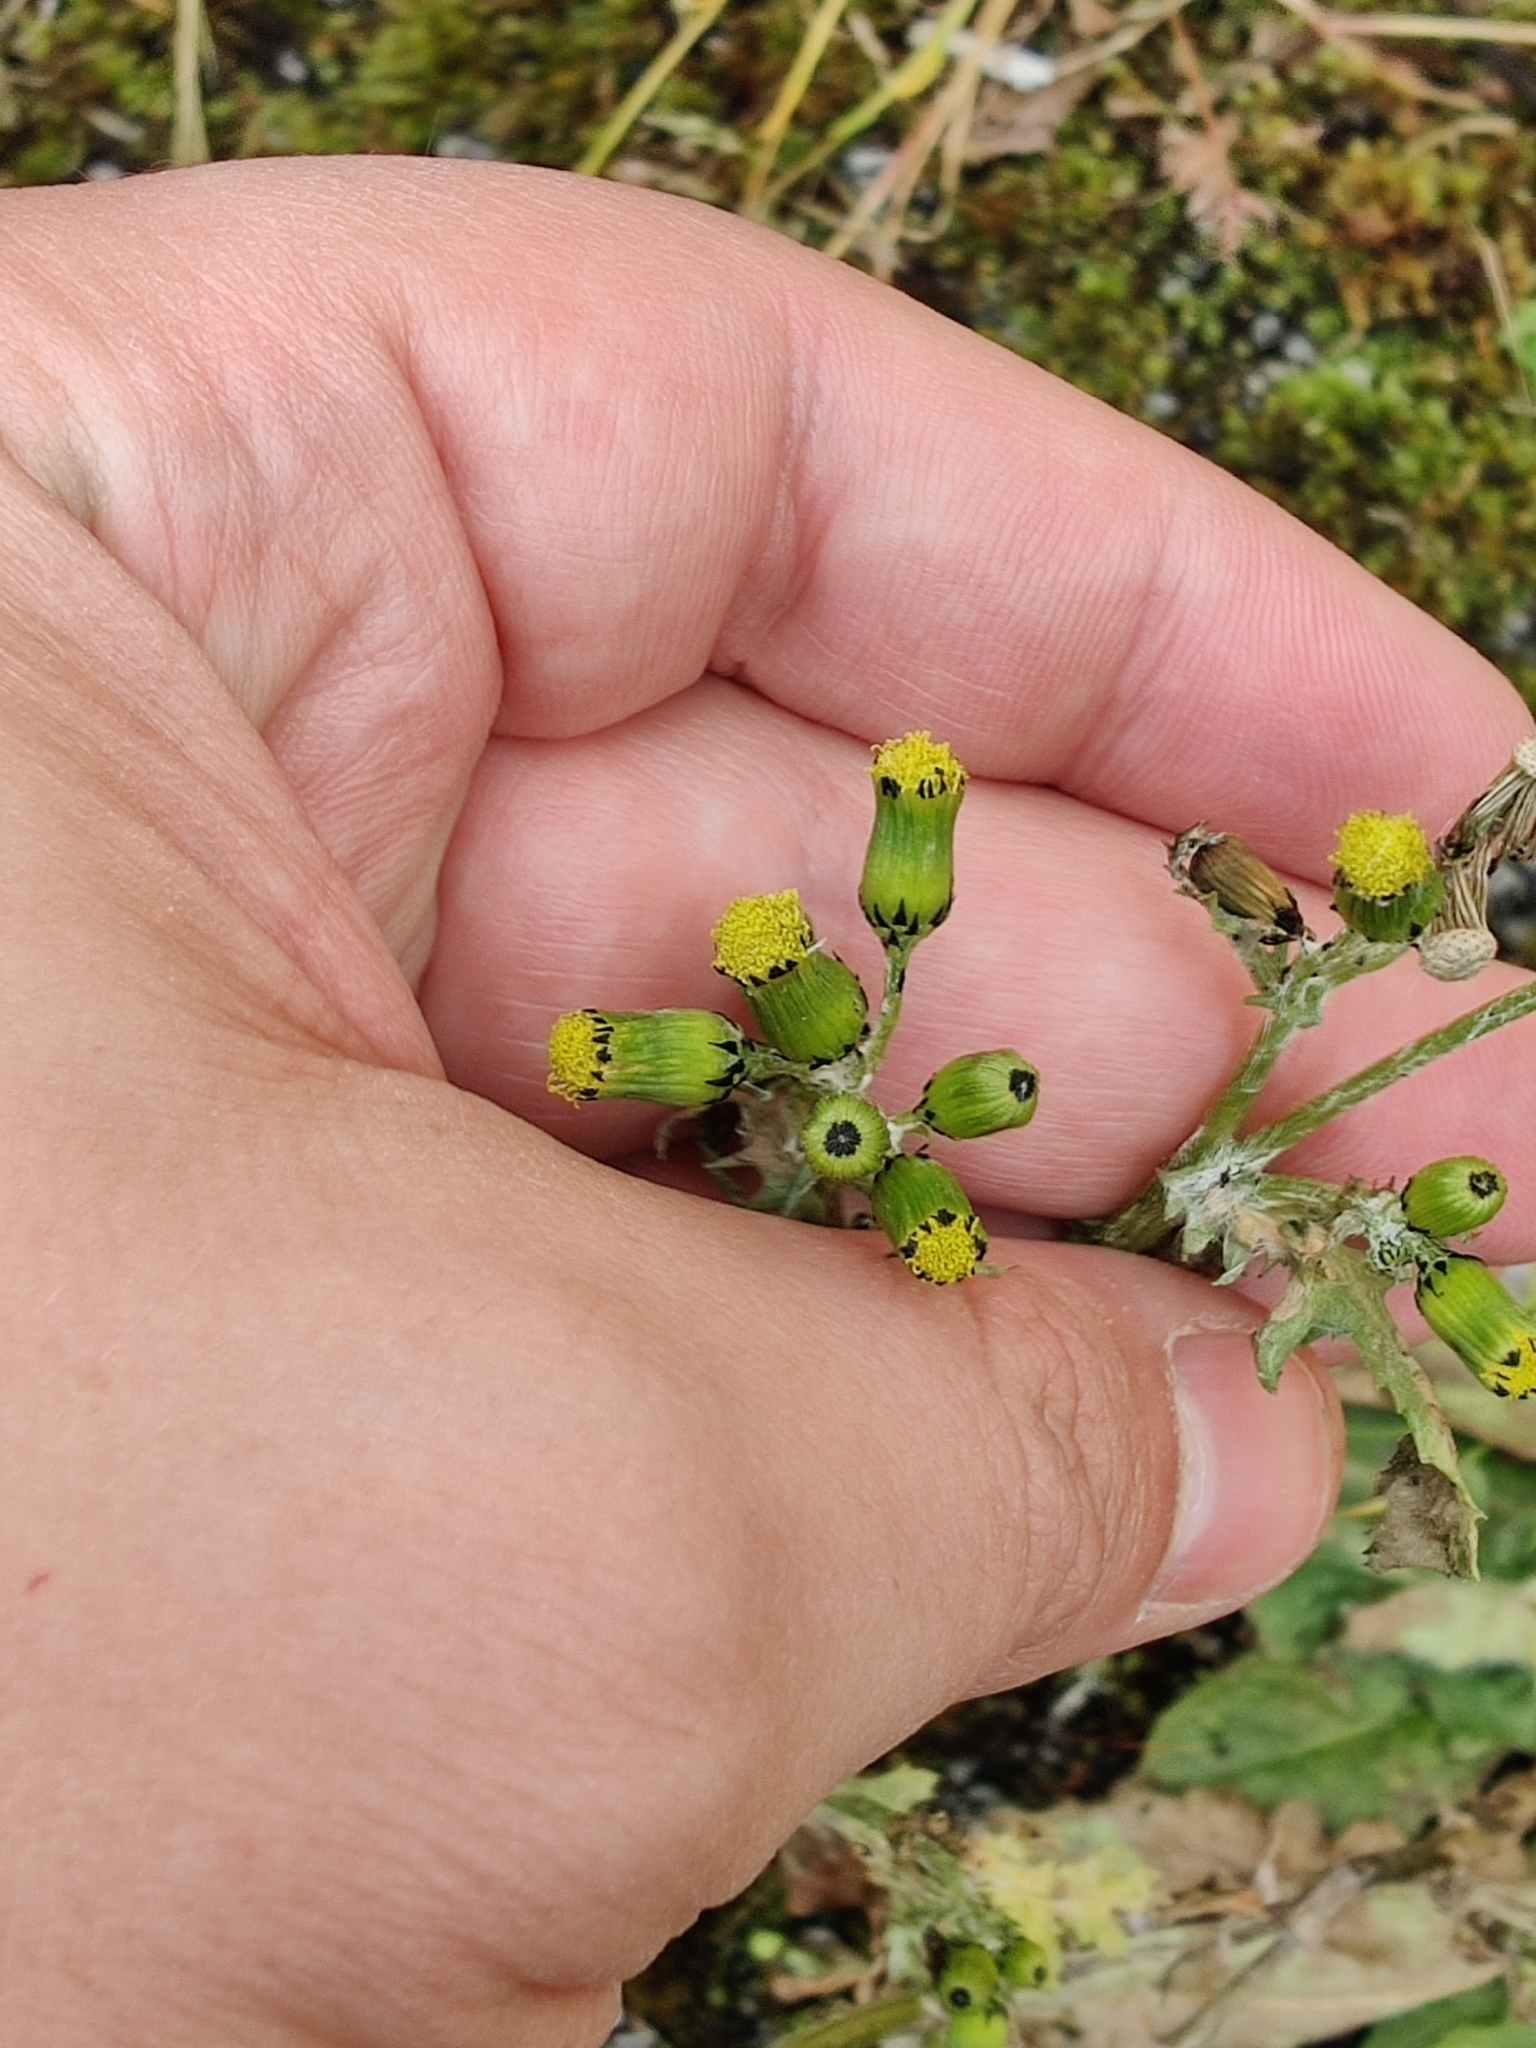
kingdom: Plantae
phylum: Tracheophyta
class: Magnoliopsida
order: Asterales
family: Asteraceae
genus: Senecio
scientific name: Senecio vulgaris
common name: Old-man-in-the-spring
